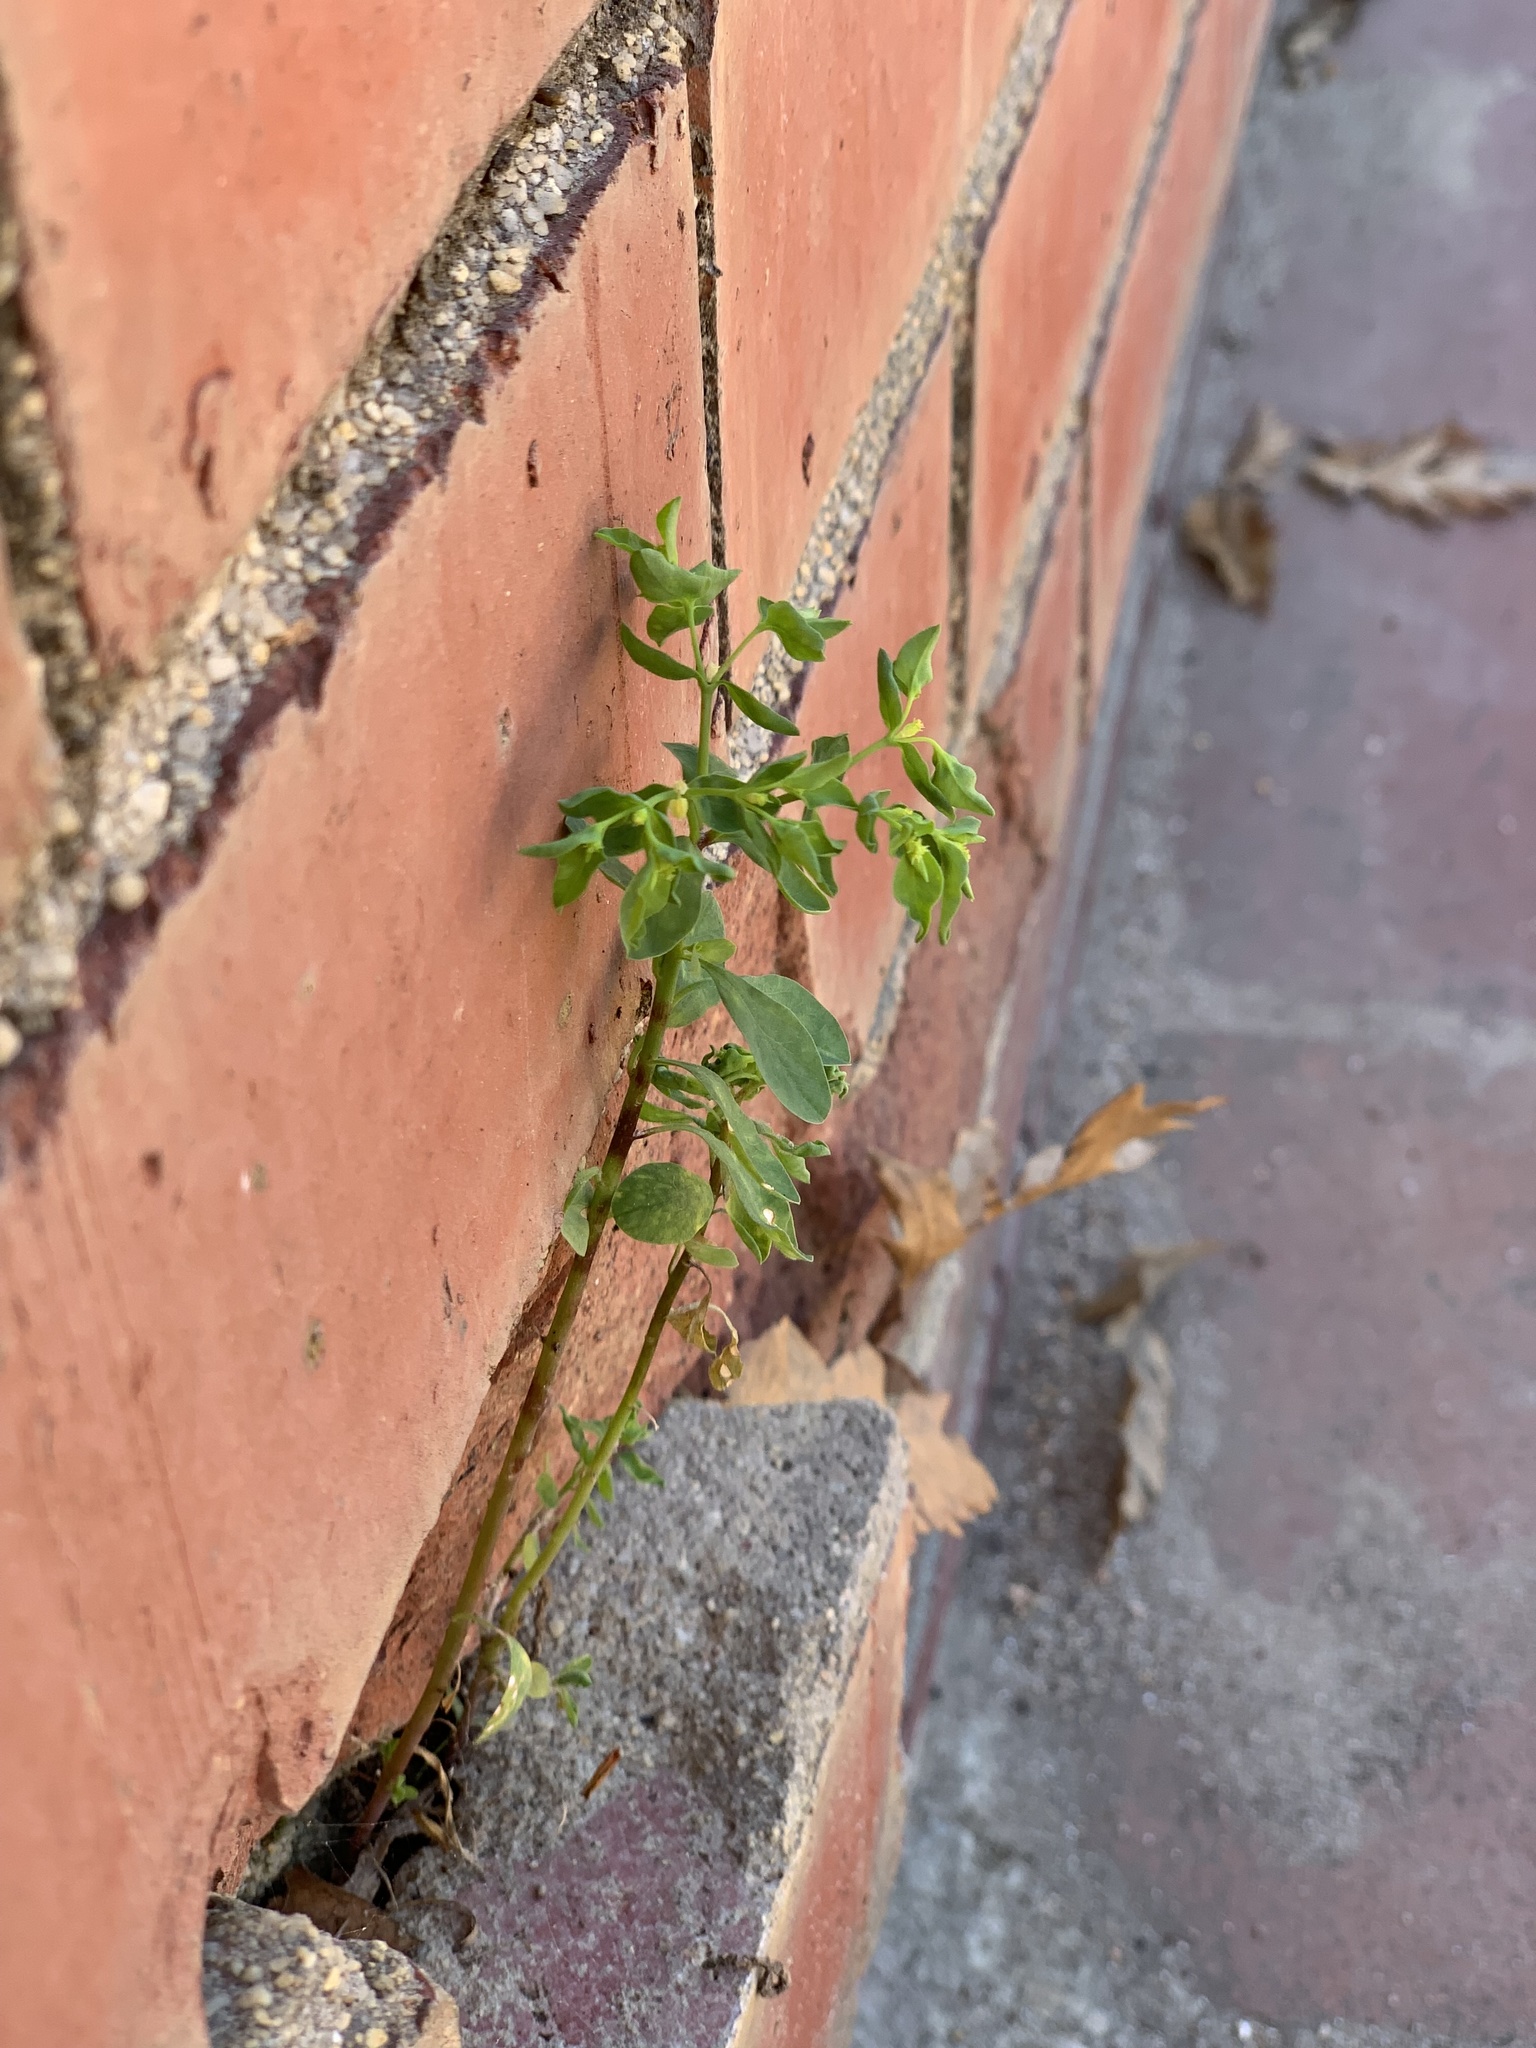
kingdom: Plantae
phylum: Tracheophyta
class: Magnoliopsida
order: Malpighiales
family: Euphorbiaceae
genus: Euphorbia
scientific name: Euphorbia peplus
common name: Petty spurge
